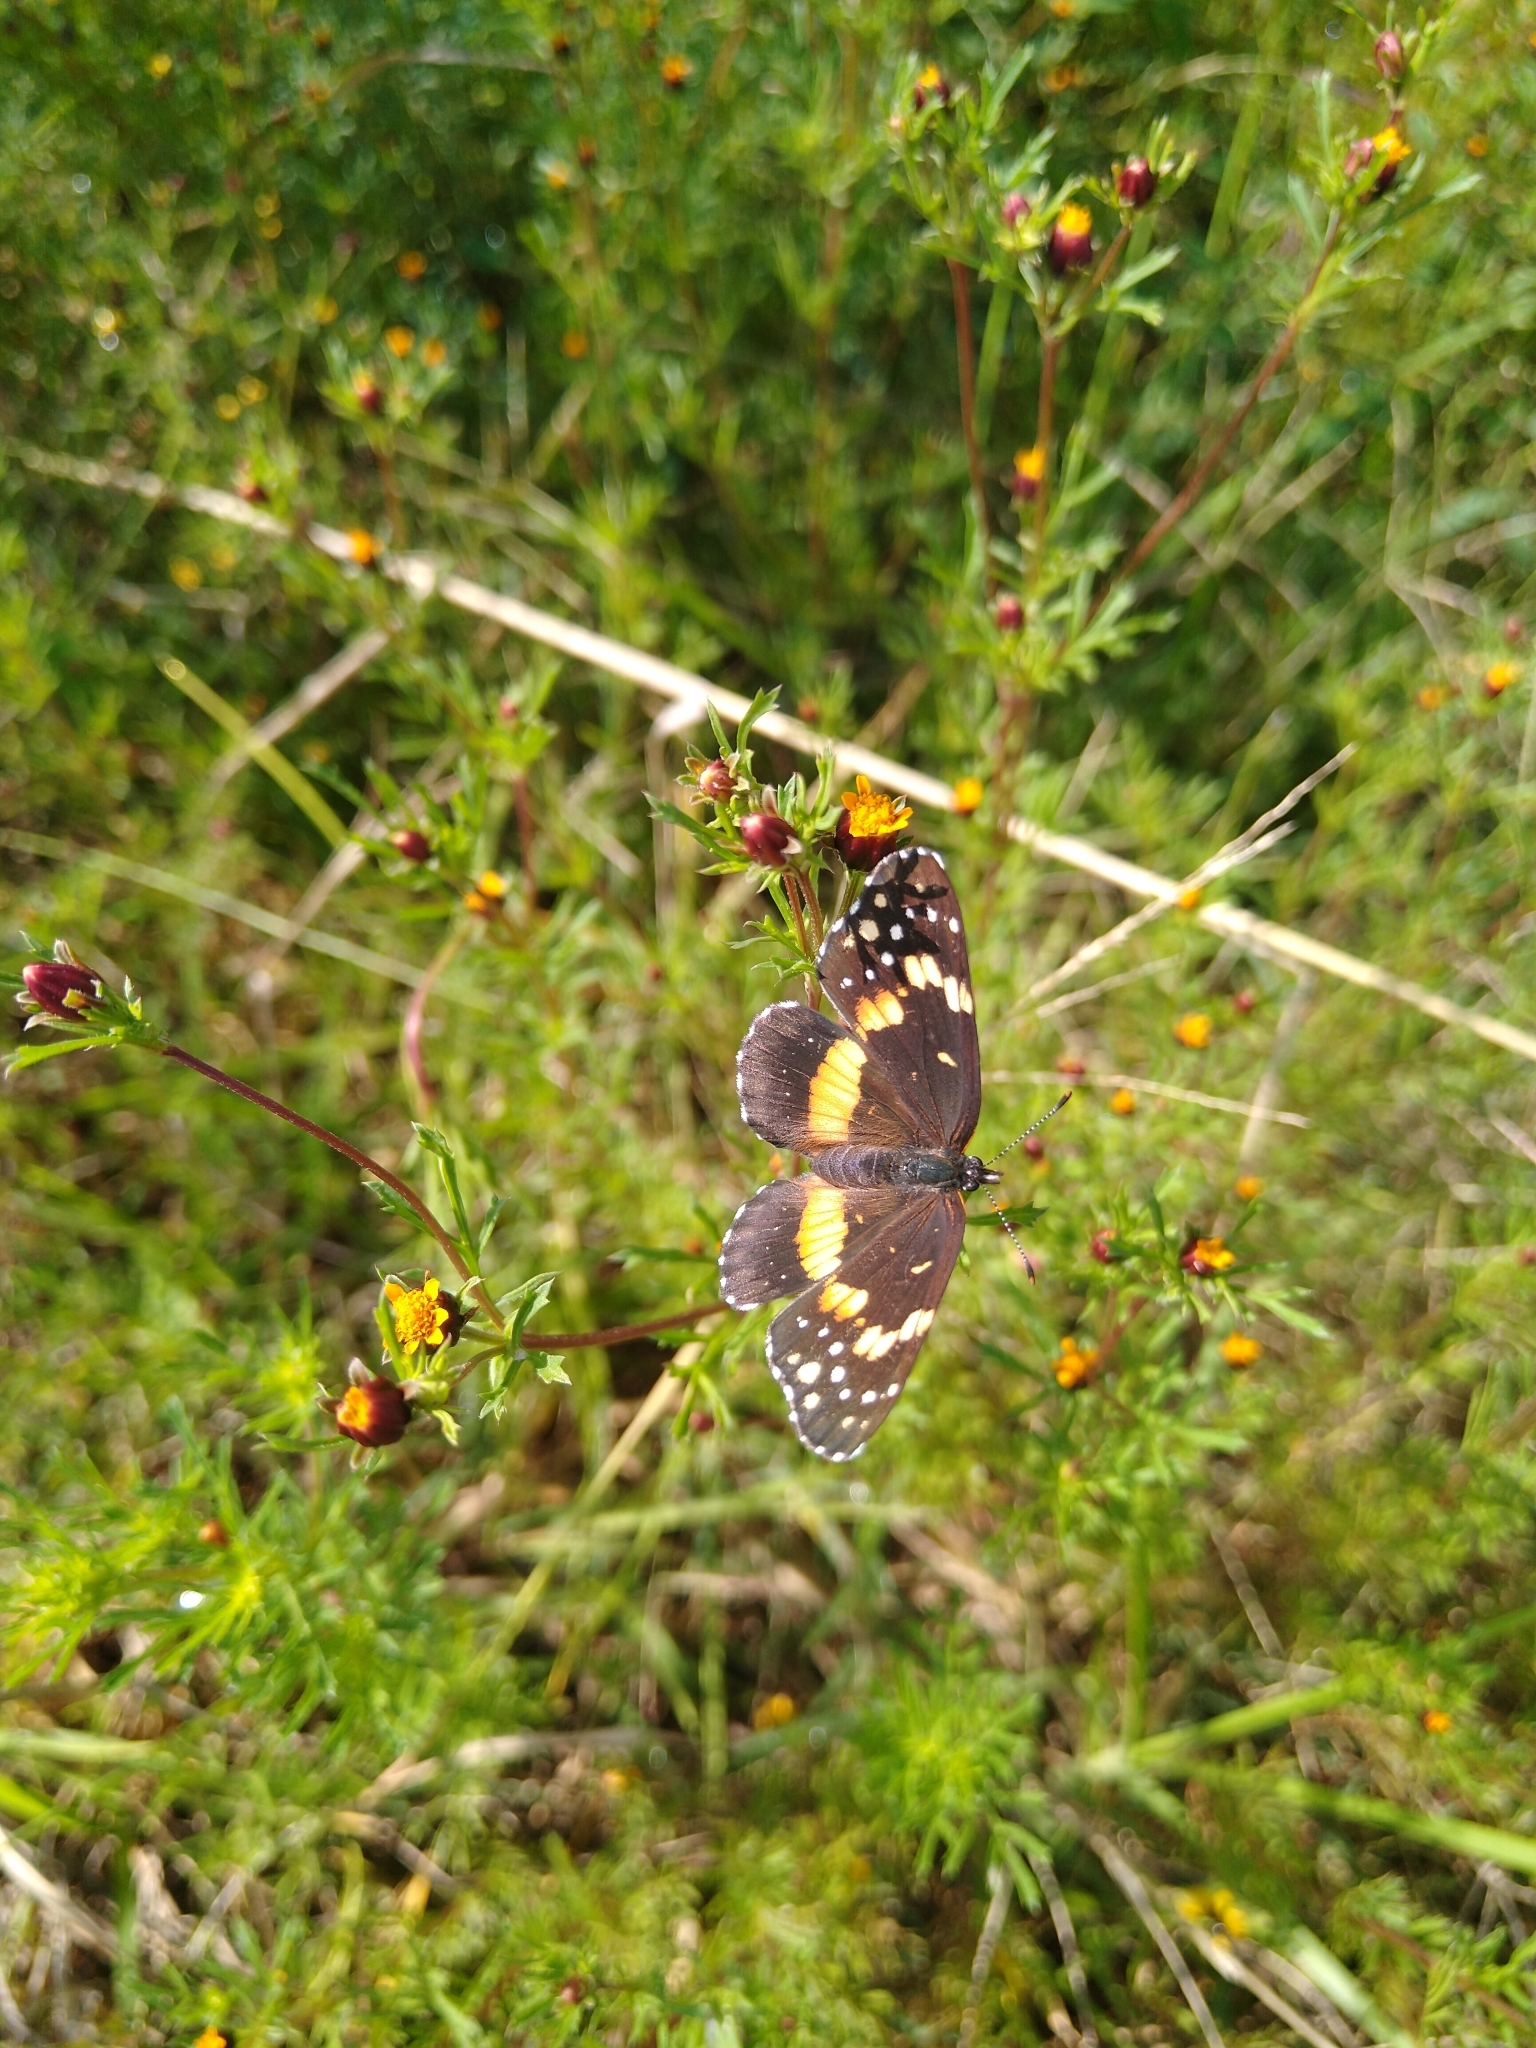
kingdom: Animalia
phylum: Arthropoda
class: Insecta
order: Lepidoptera
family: Nymphalidae
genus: Chlosyne
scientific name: Chlosyne lacinia
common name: Bordered patch
